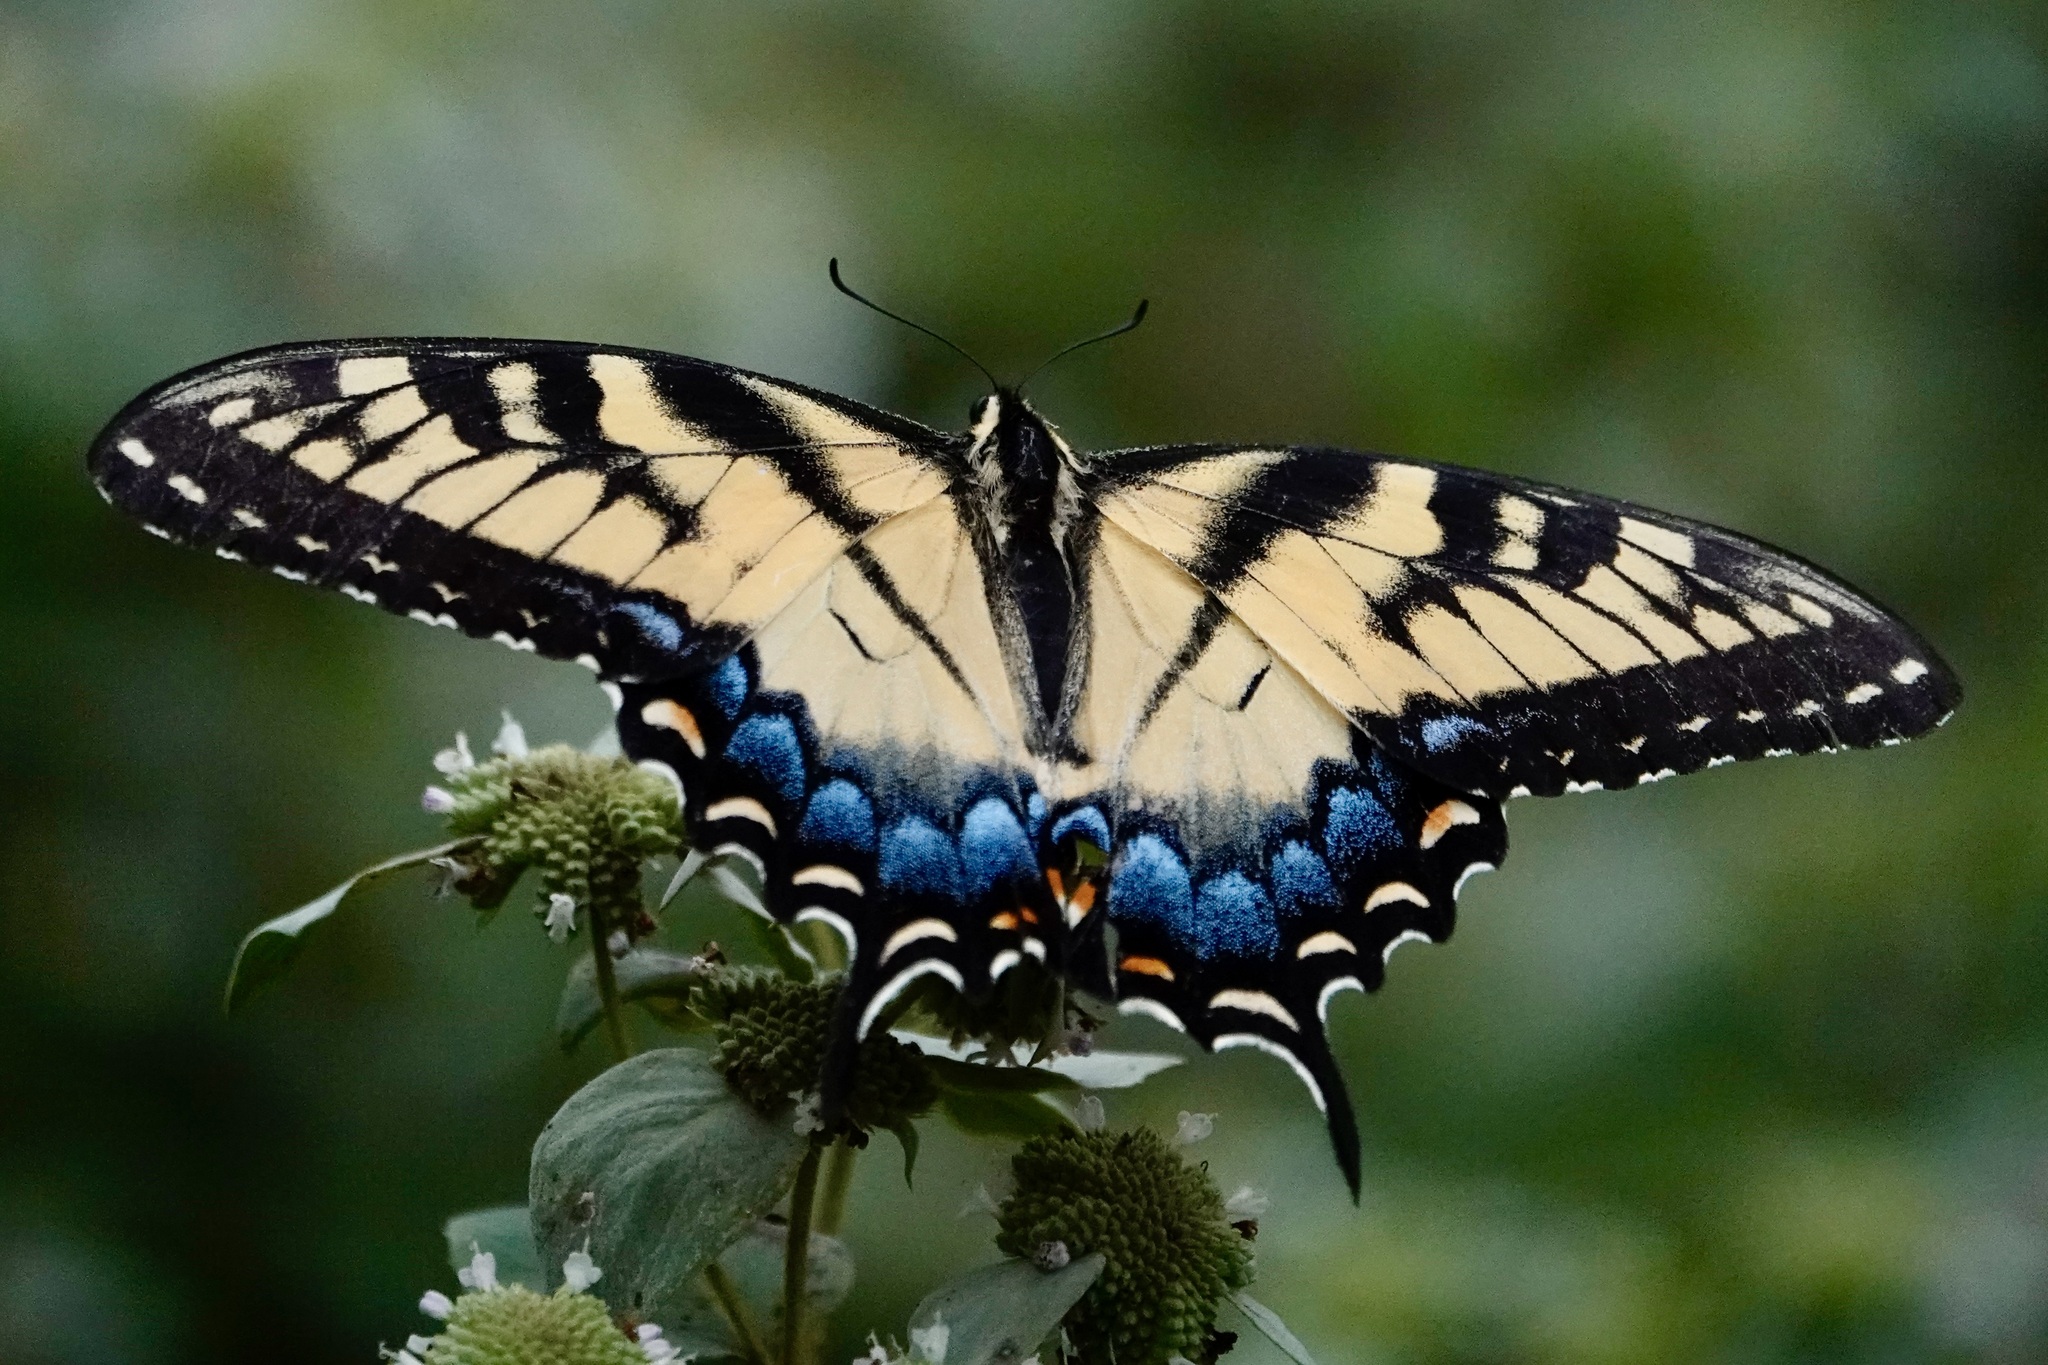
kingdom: Animalia
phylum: Arthropoda
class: Insecta
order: Lepidoptera
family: Papilionidae
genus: Papilio
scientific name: Papilio glaucus
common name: Tiger swallowtail
